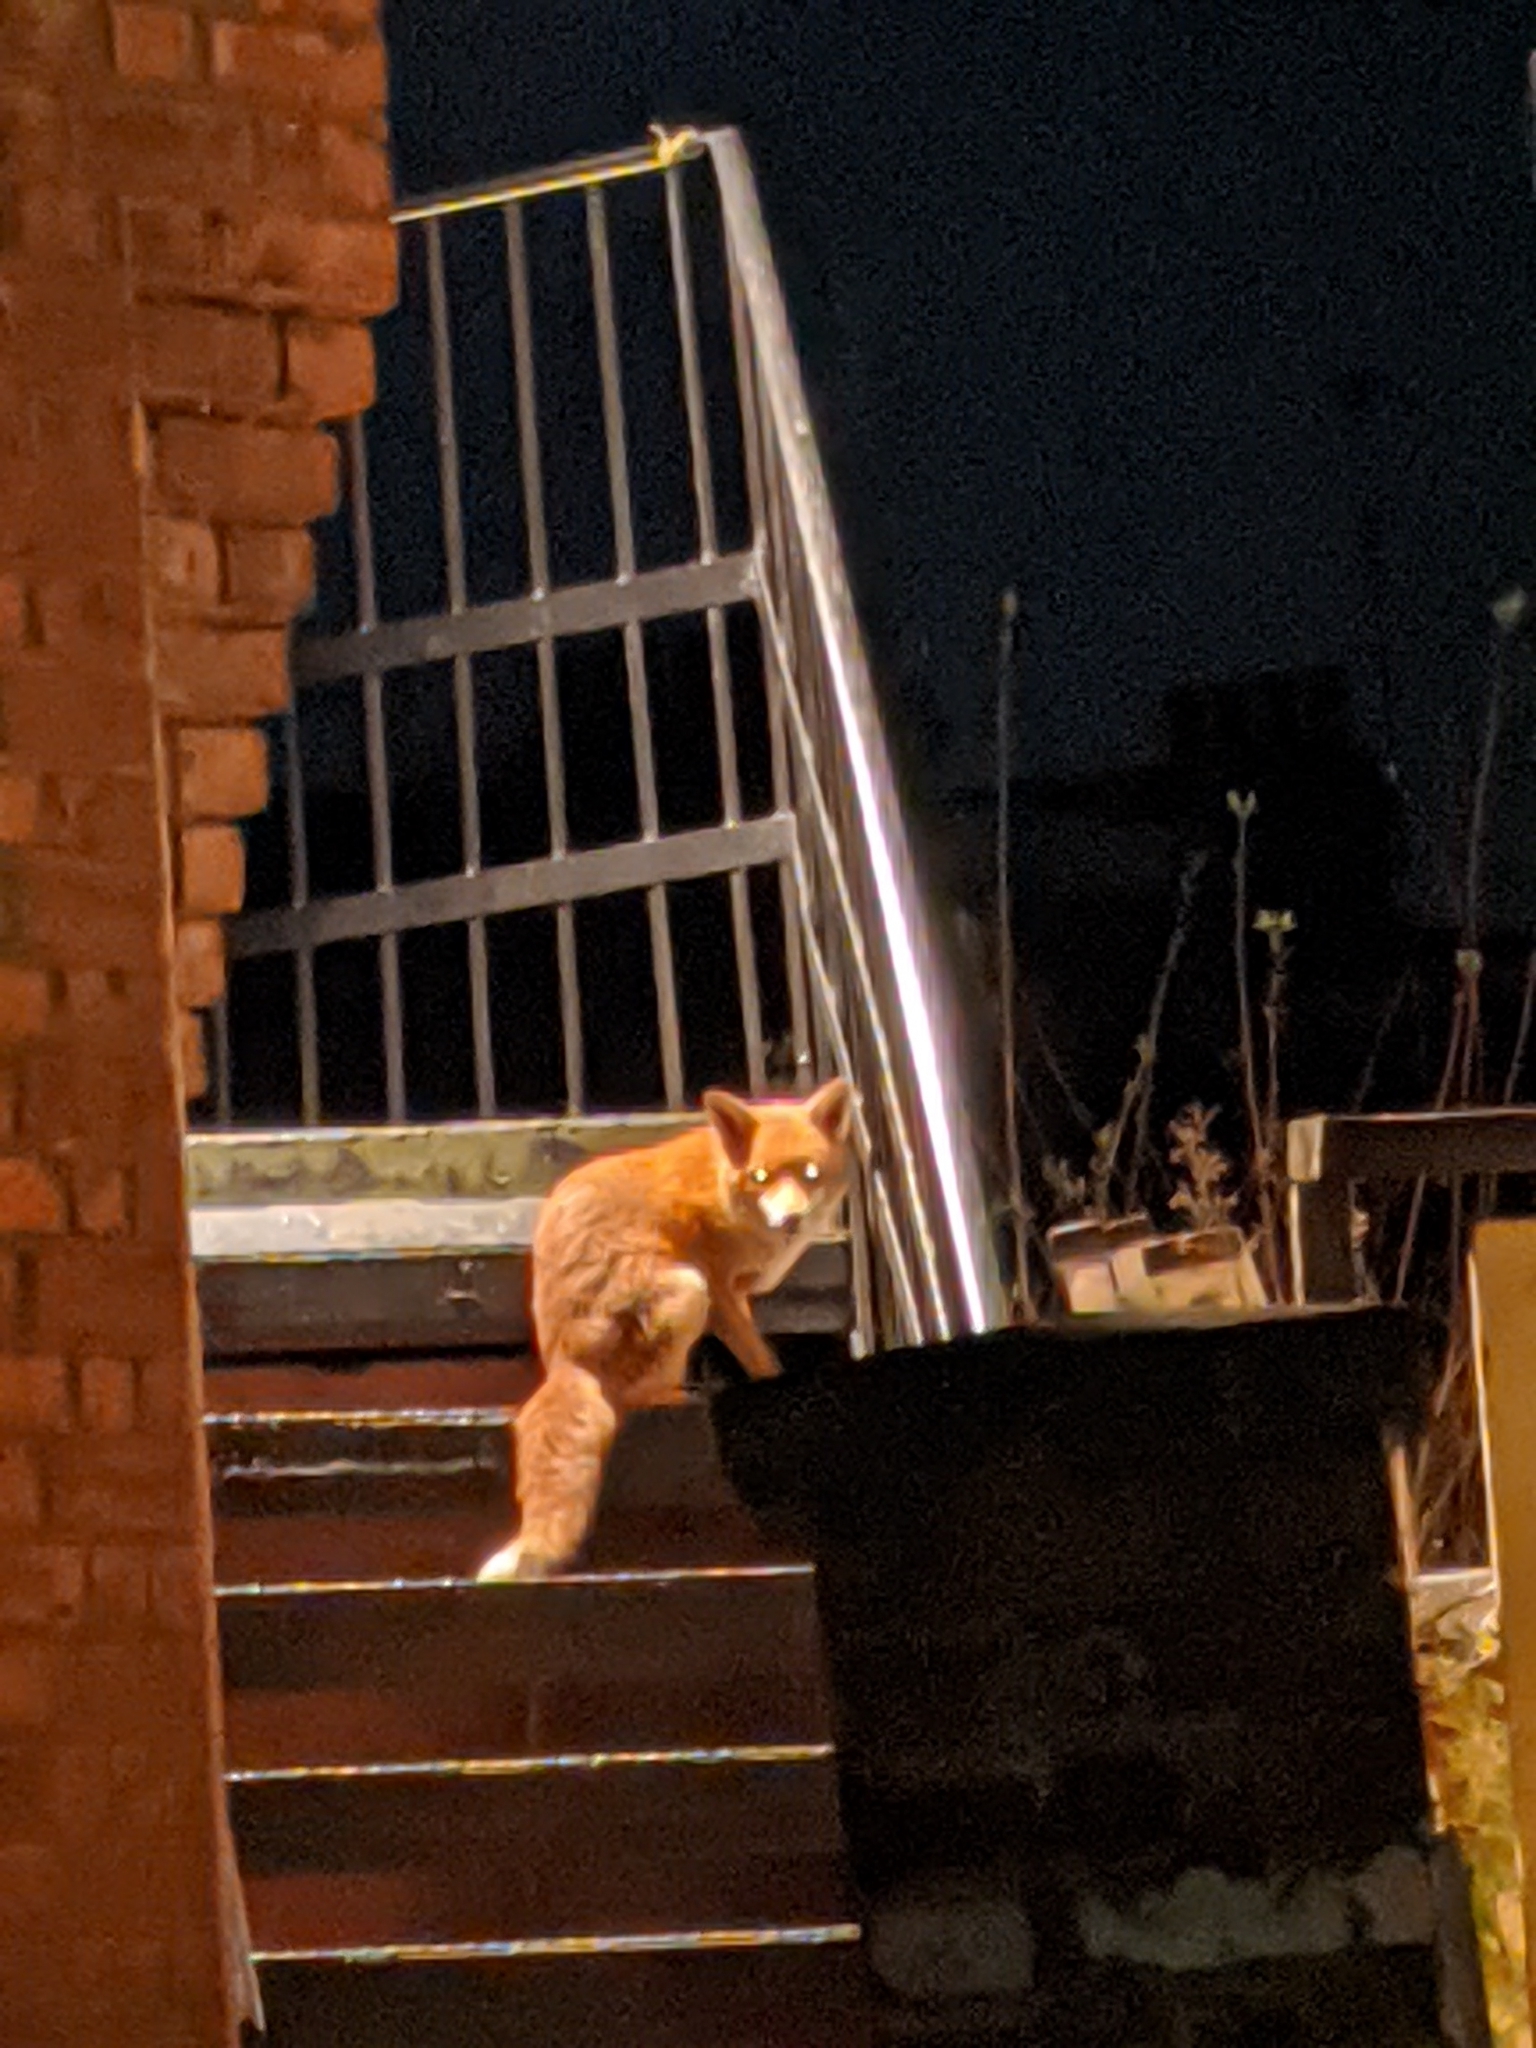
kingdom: Animalia
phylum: Chordata
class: Mammalia
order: Carnivora
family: Canidae
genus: Vulpes
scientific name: Vulpes vulpes
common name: Red fox
